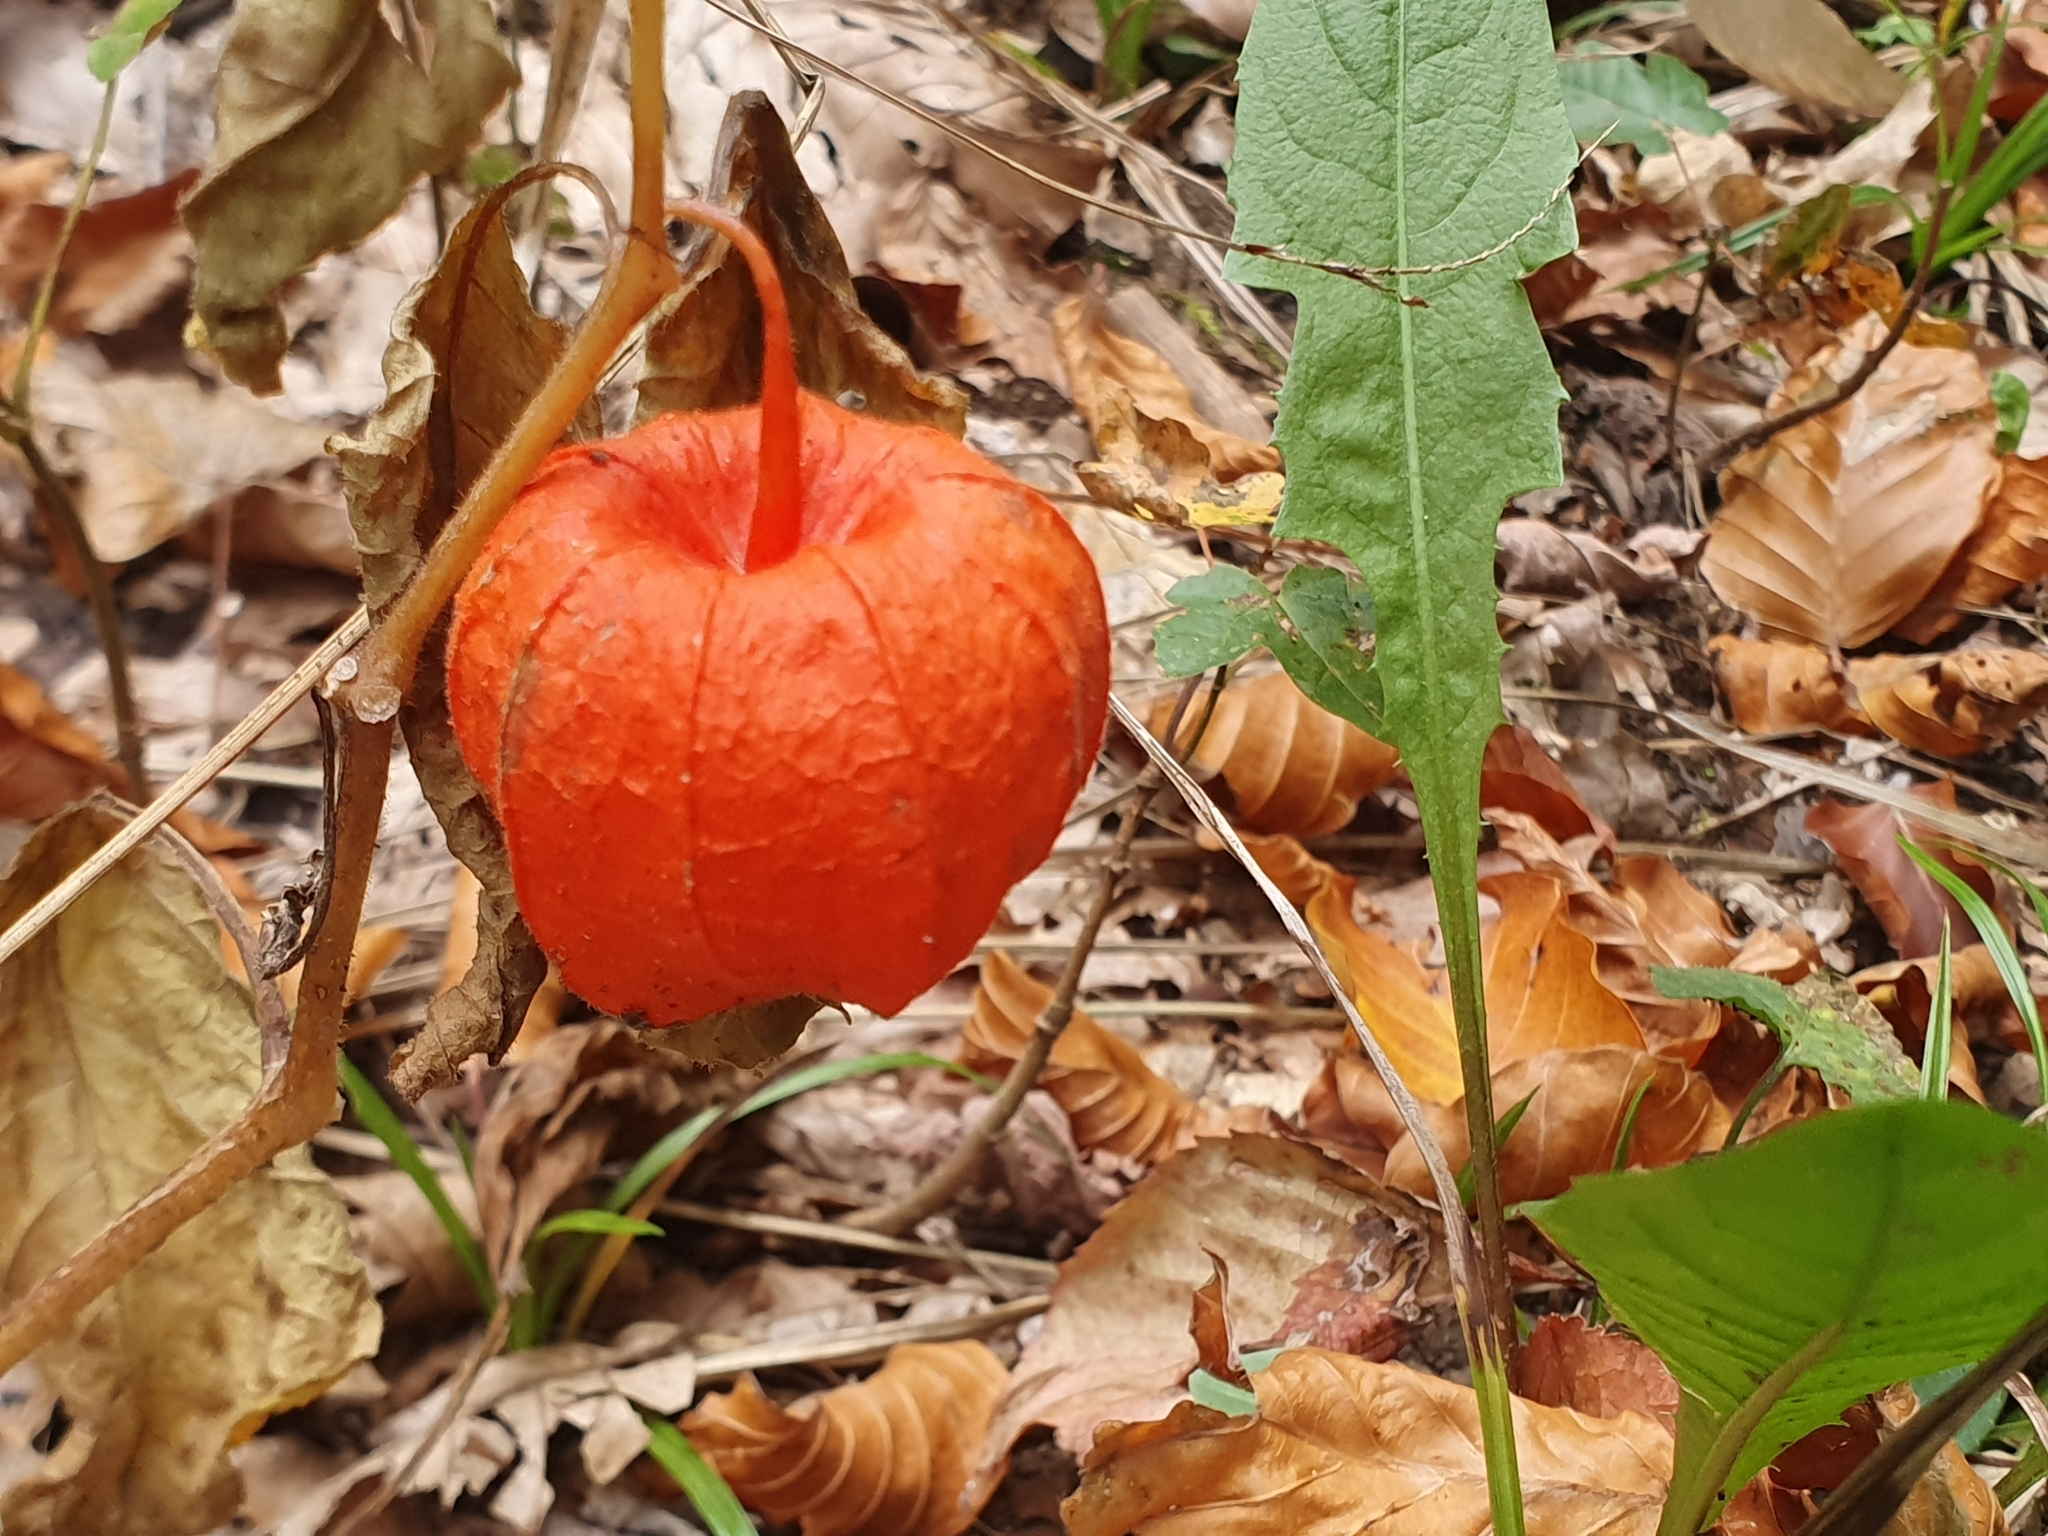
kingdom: Plantae
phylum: Tracheophyta
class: Magnoliopsida
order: Solanales
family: Solanaceae
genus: Alkekengi
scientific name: Alkekengi officinarum
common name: Japanese-lantern
